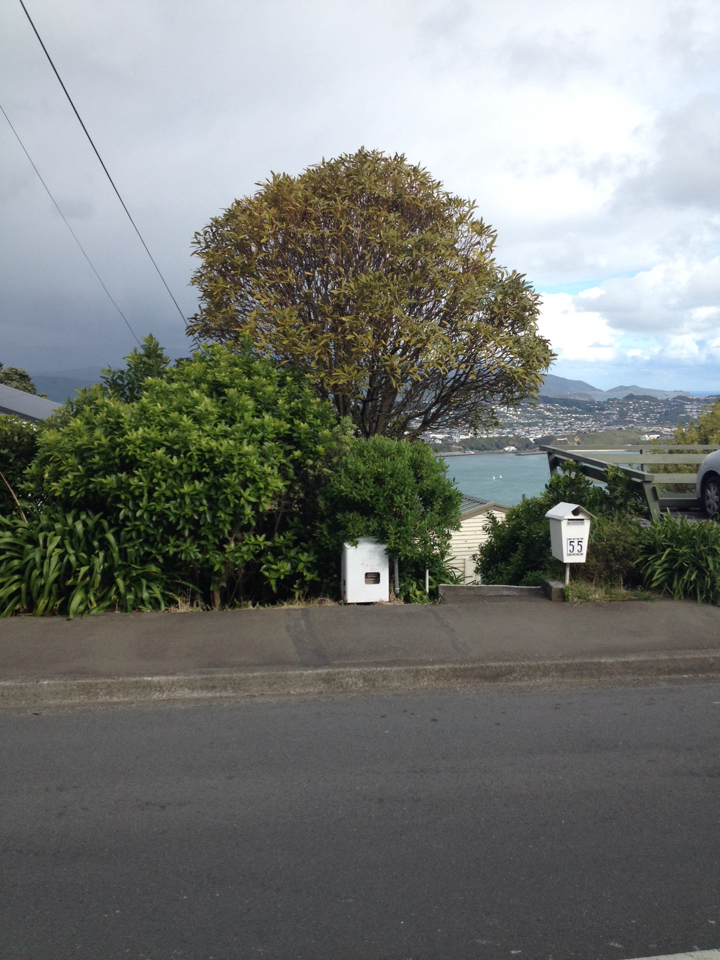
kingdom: Plantae
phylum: Tracheophyta
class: Magnoliopsida
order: Apiales
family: Araliaceae
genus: Pseudopanax
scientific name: Pseudopanax crassifolius
